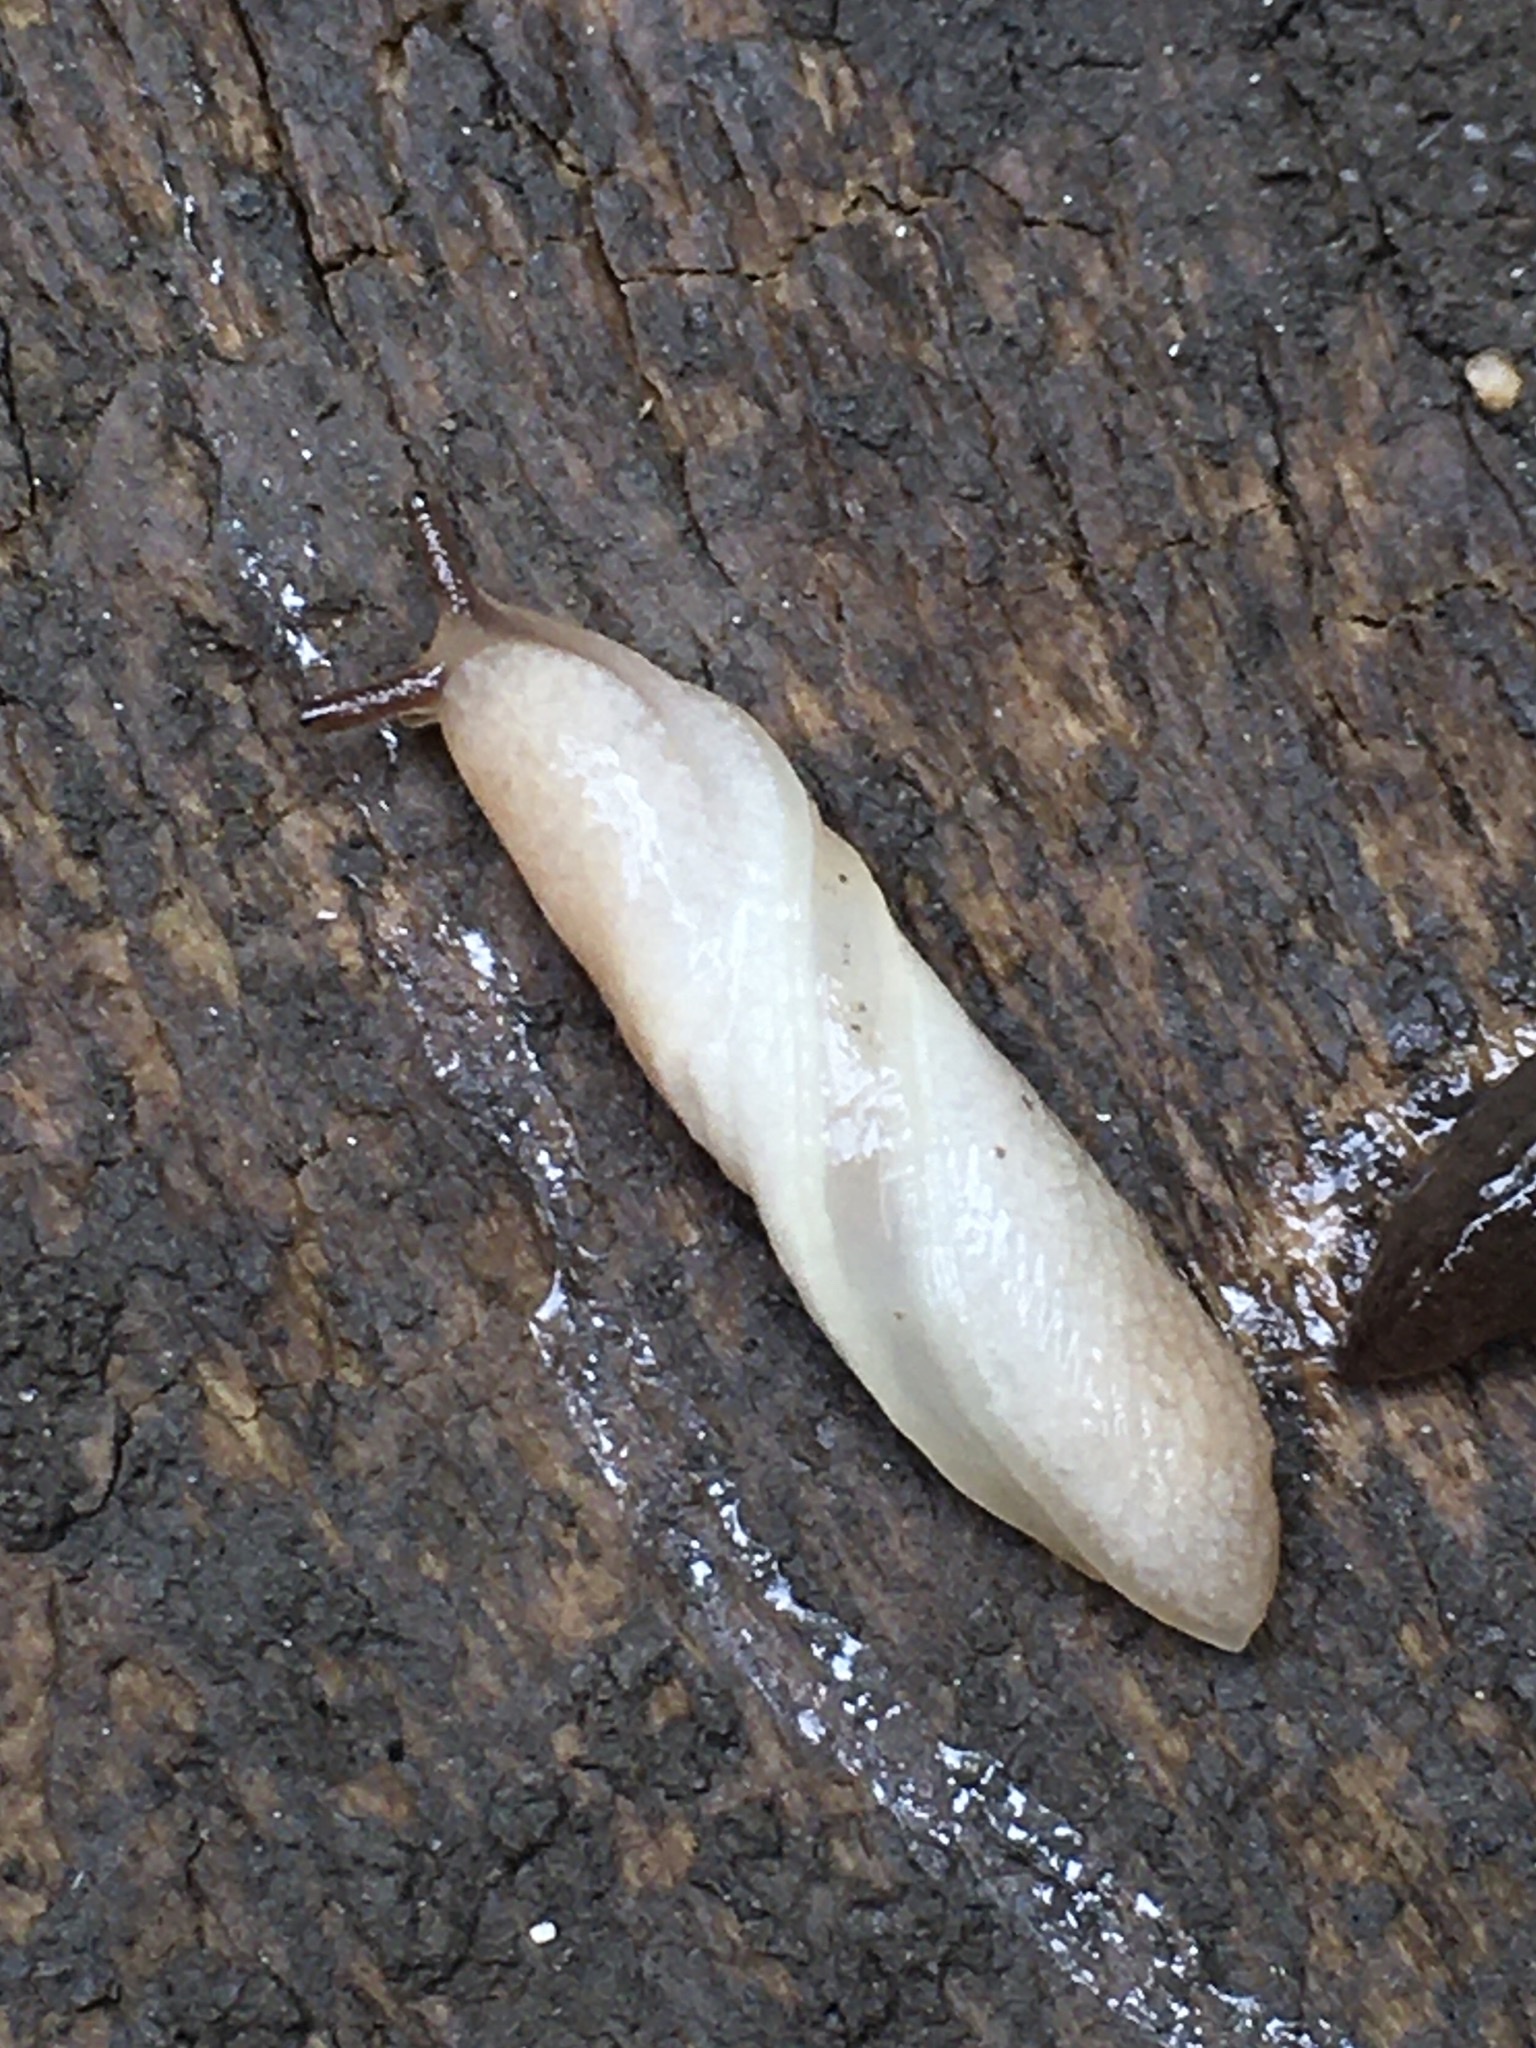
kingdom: Animalia
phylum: Mollusca
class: Gastropoda
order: Stylommatophora
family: Agriolimacidae
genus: Deroceras
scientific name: Deroceras reticulatum
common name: Gray field slug
